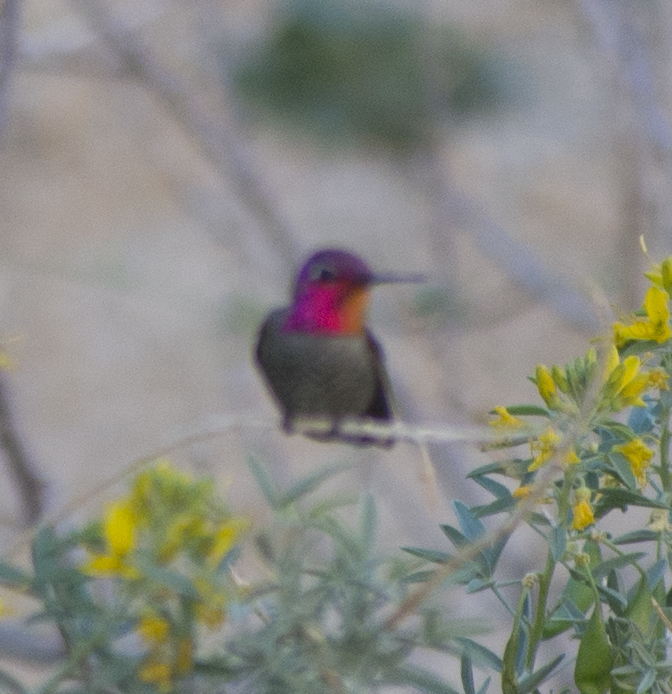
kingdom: Animalia
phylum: Chordata
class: Aves
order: Apodiformes
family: Trochilidae
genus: Calypte
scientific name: Calypte anna
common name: Anna's hummingbird
